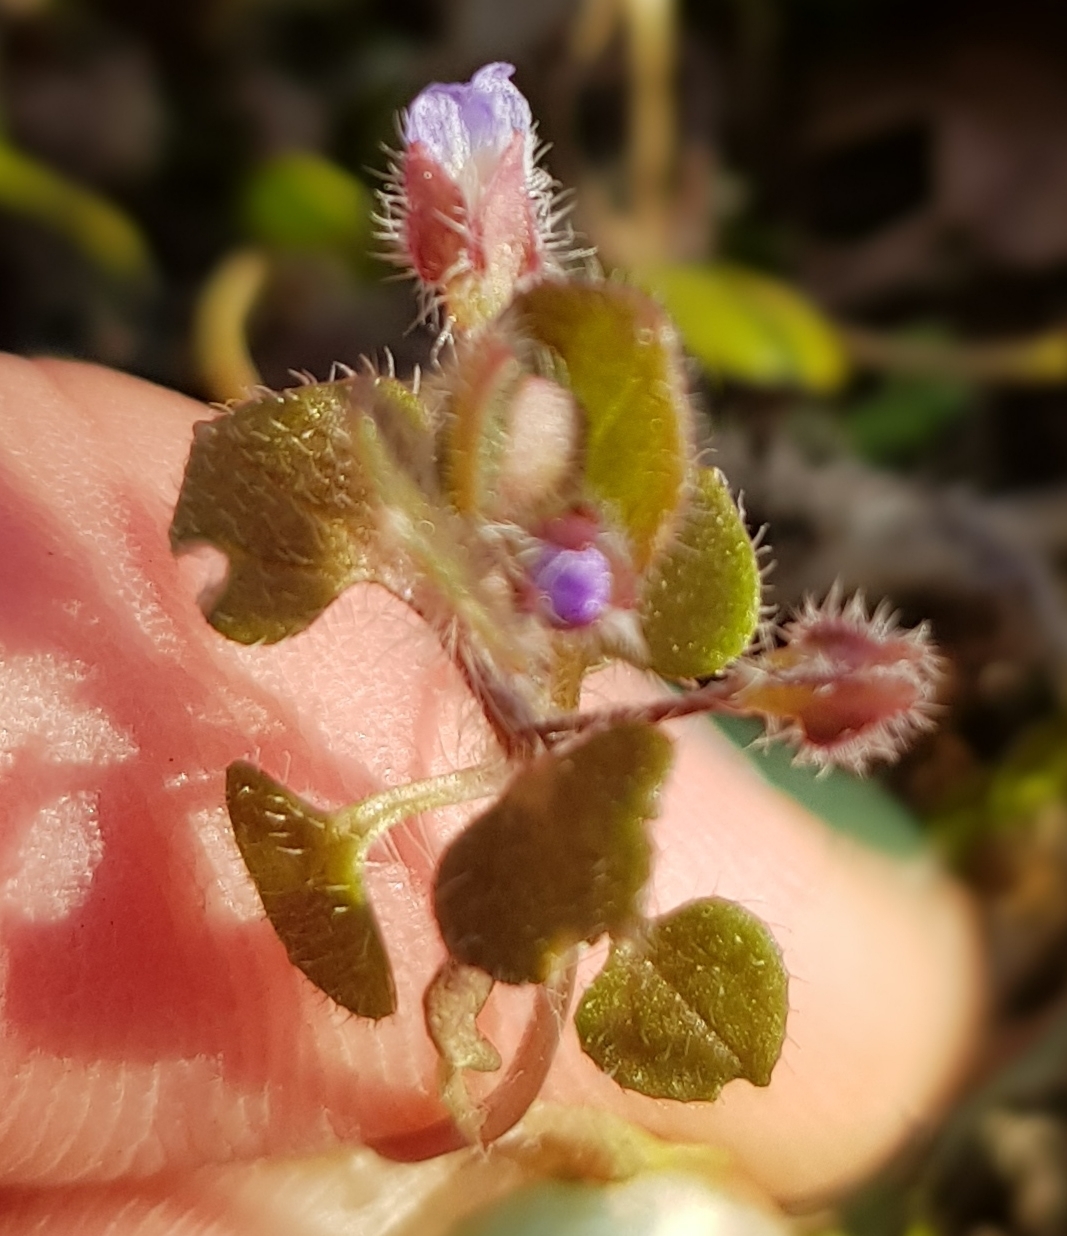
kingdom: Plantae
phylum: Tracheophyta
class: Magnoliopsida
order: Lamiales
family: Plantaginaceae
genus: Veronica
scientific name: Veronica hederifolia
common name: Ivy-leaved speedwell
